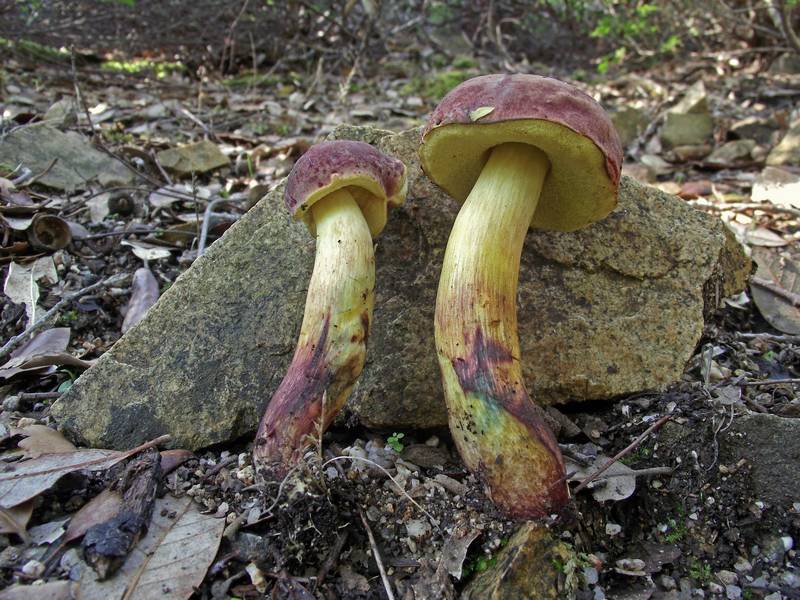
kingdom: Fungi
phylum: Basidiomycota
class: Agaricomycetes
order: Boletales
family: Boletaceae
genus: Xerocomellus
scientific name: Xerocomellus redeuilhii
